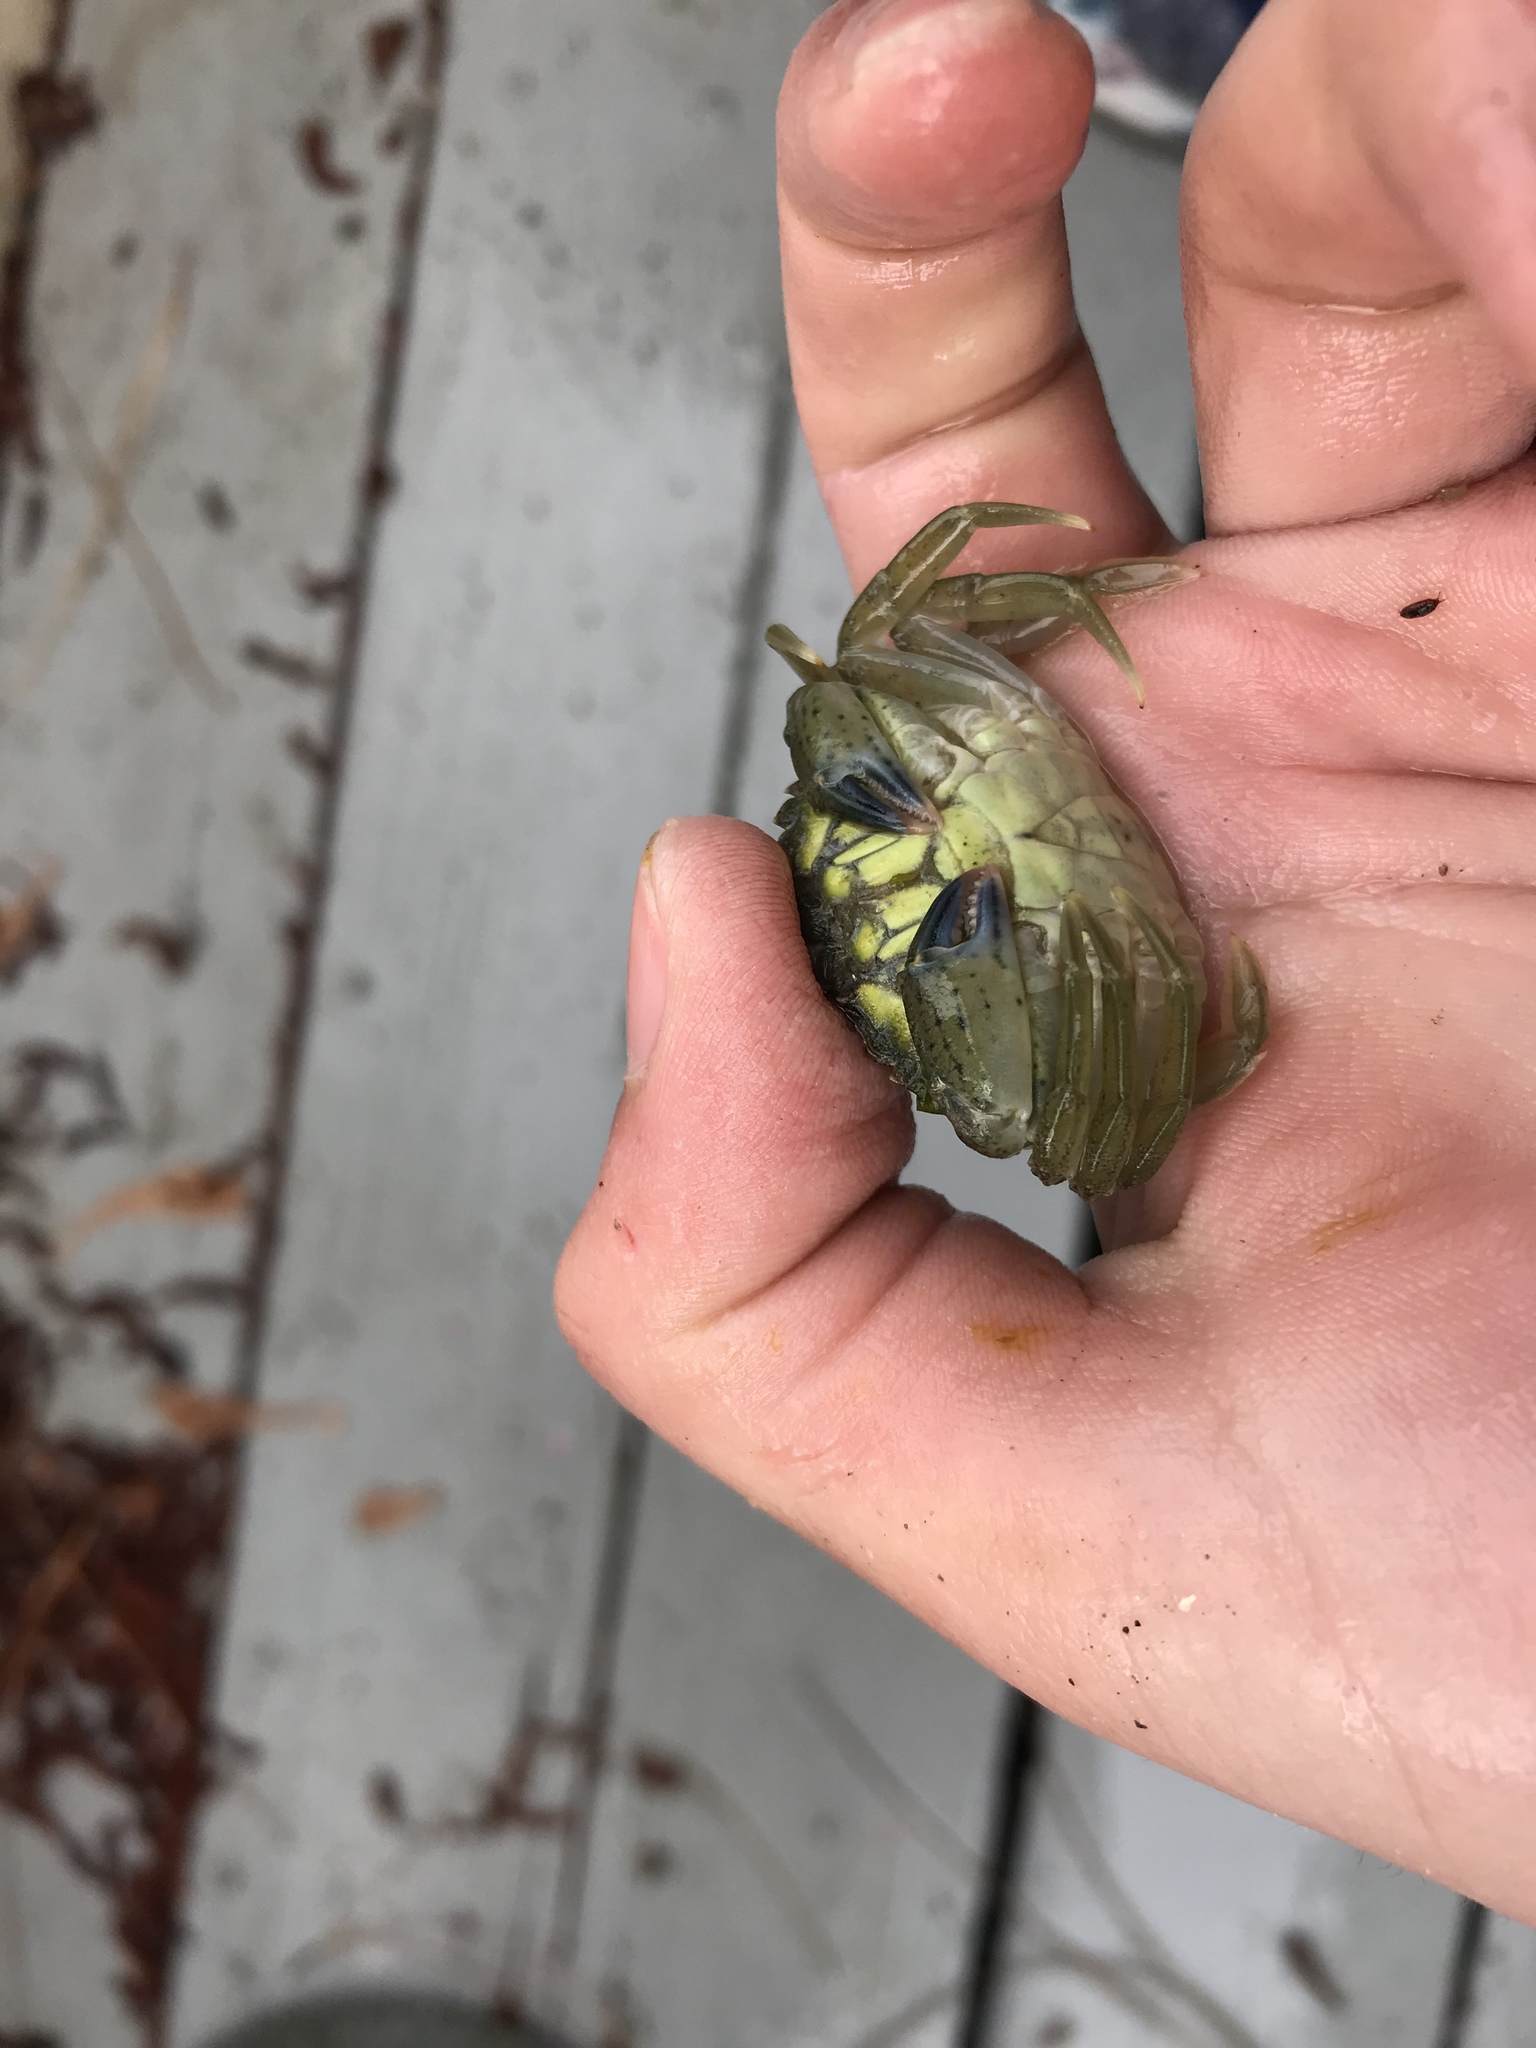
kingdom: Animalia
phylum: Arthropoda
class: Malacostraca
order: Decapoda
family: Carcinidae
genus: Carcinus
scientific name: Carcinus maenas
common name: European green crab
